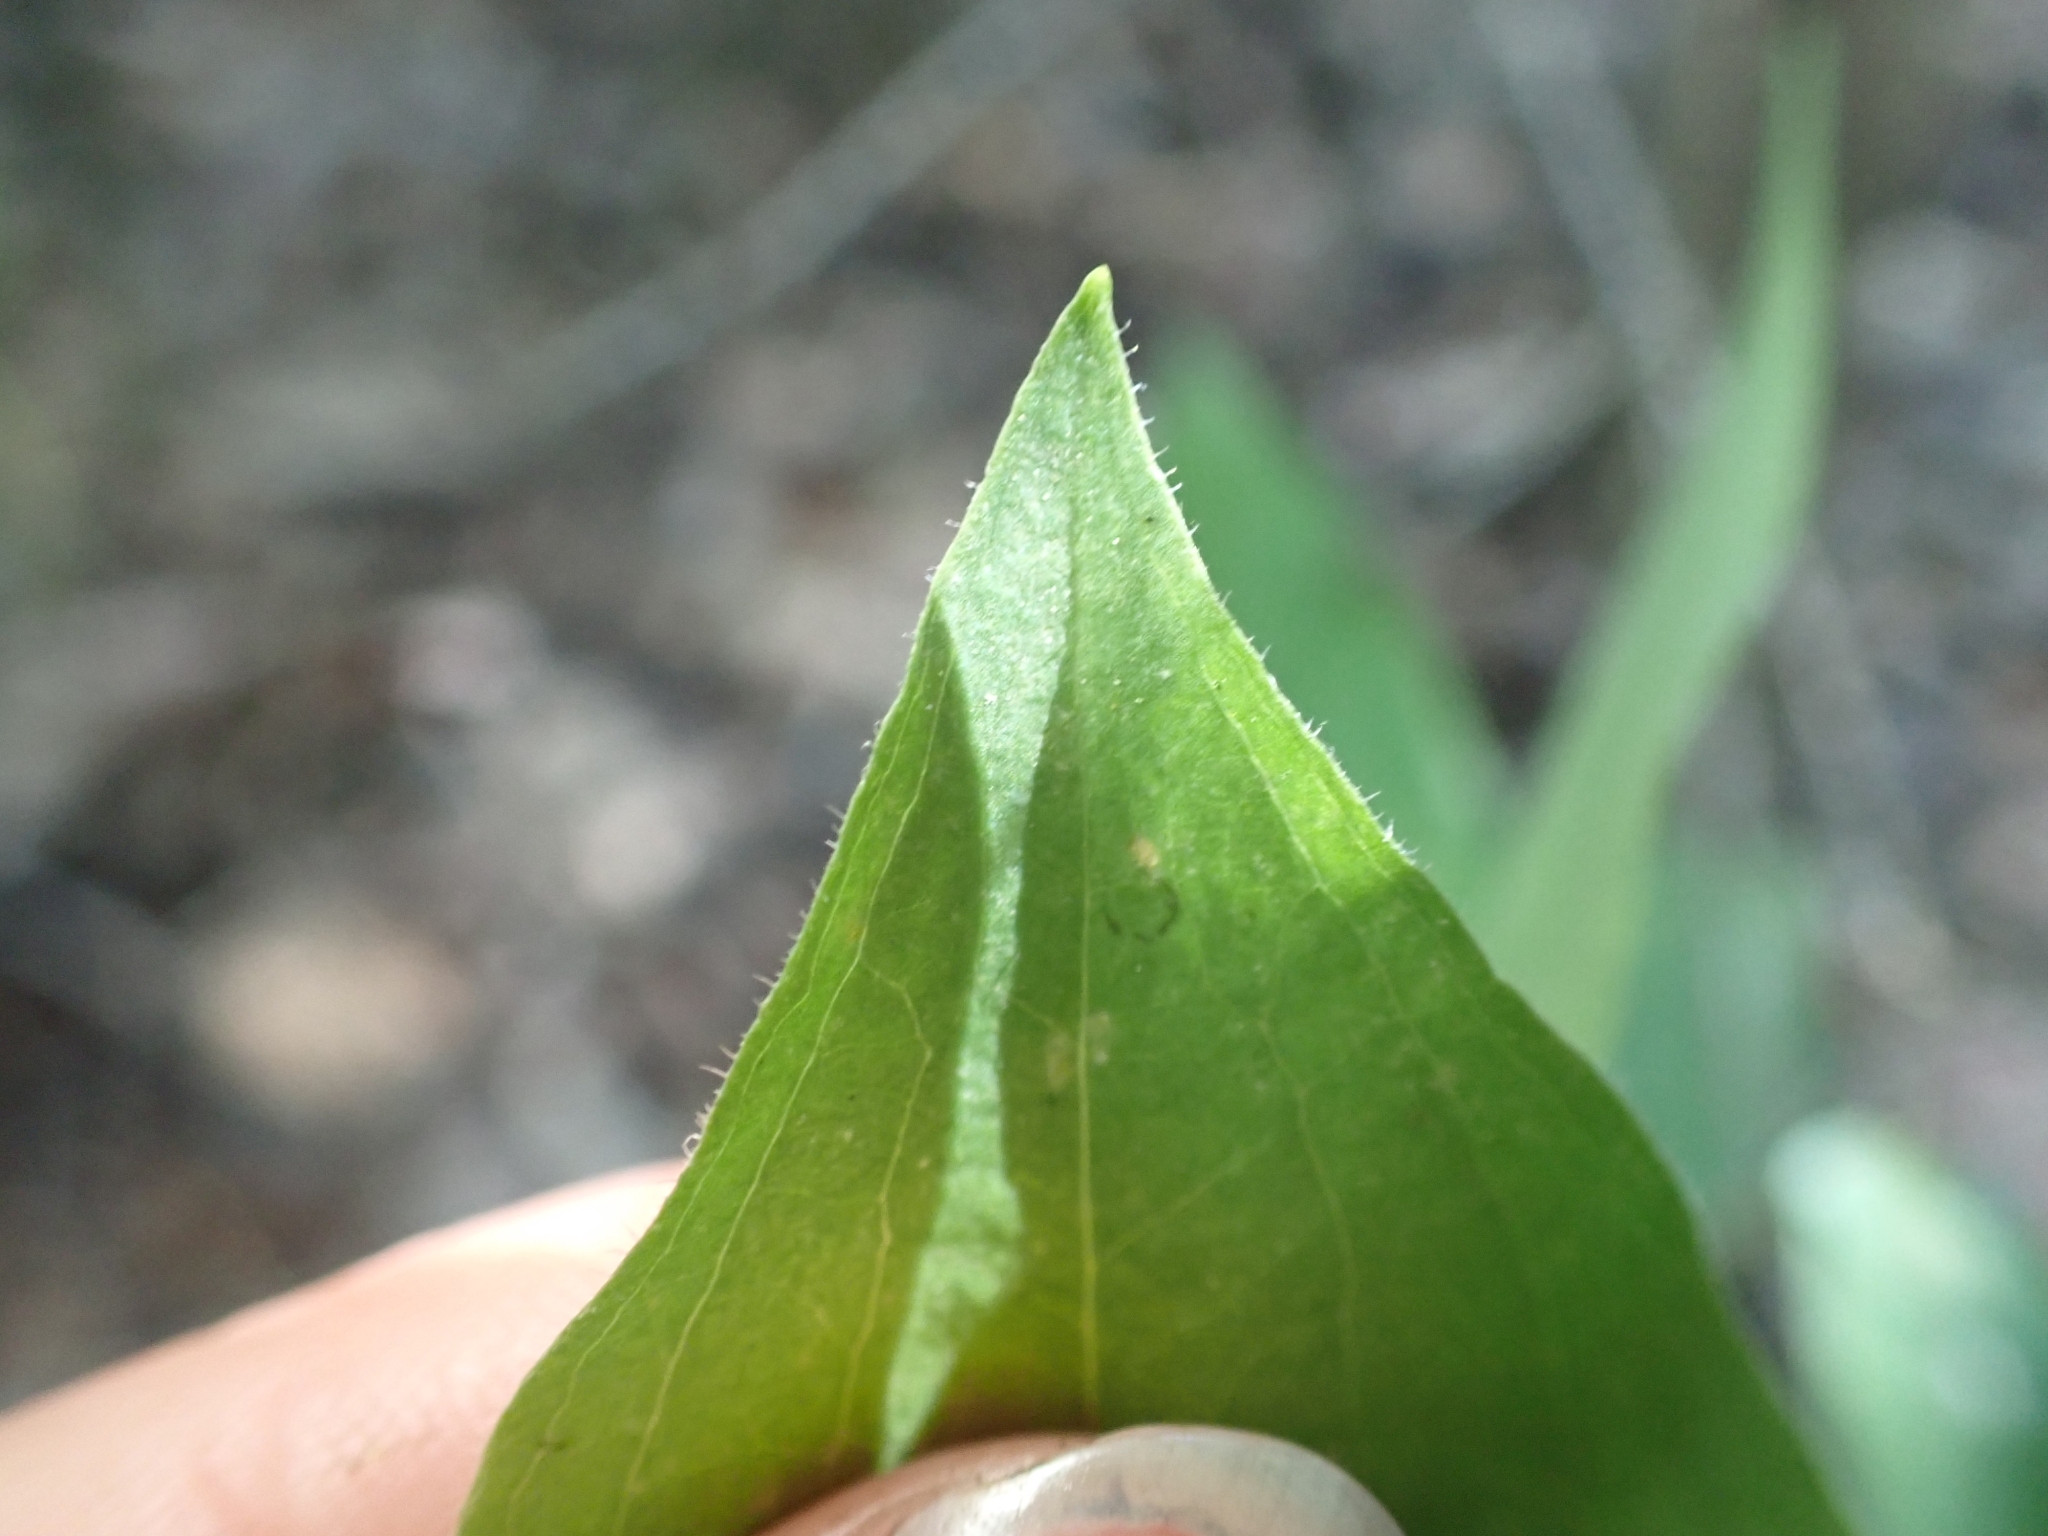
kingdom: Plantae
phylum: Tracheophyta
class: Liliopsida
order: Liliales
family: Liliaceae
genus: Prosartes
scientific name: Prosartes trachycarpa
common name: Rough-fruit fairy-bells
